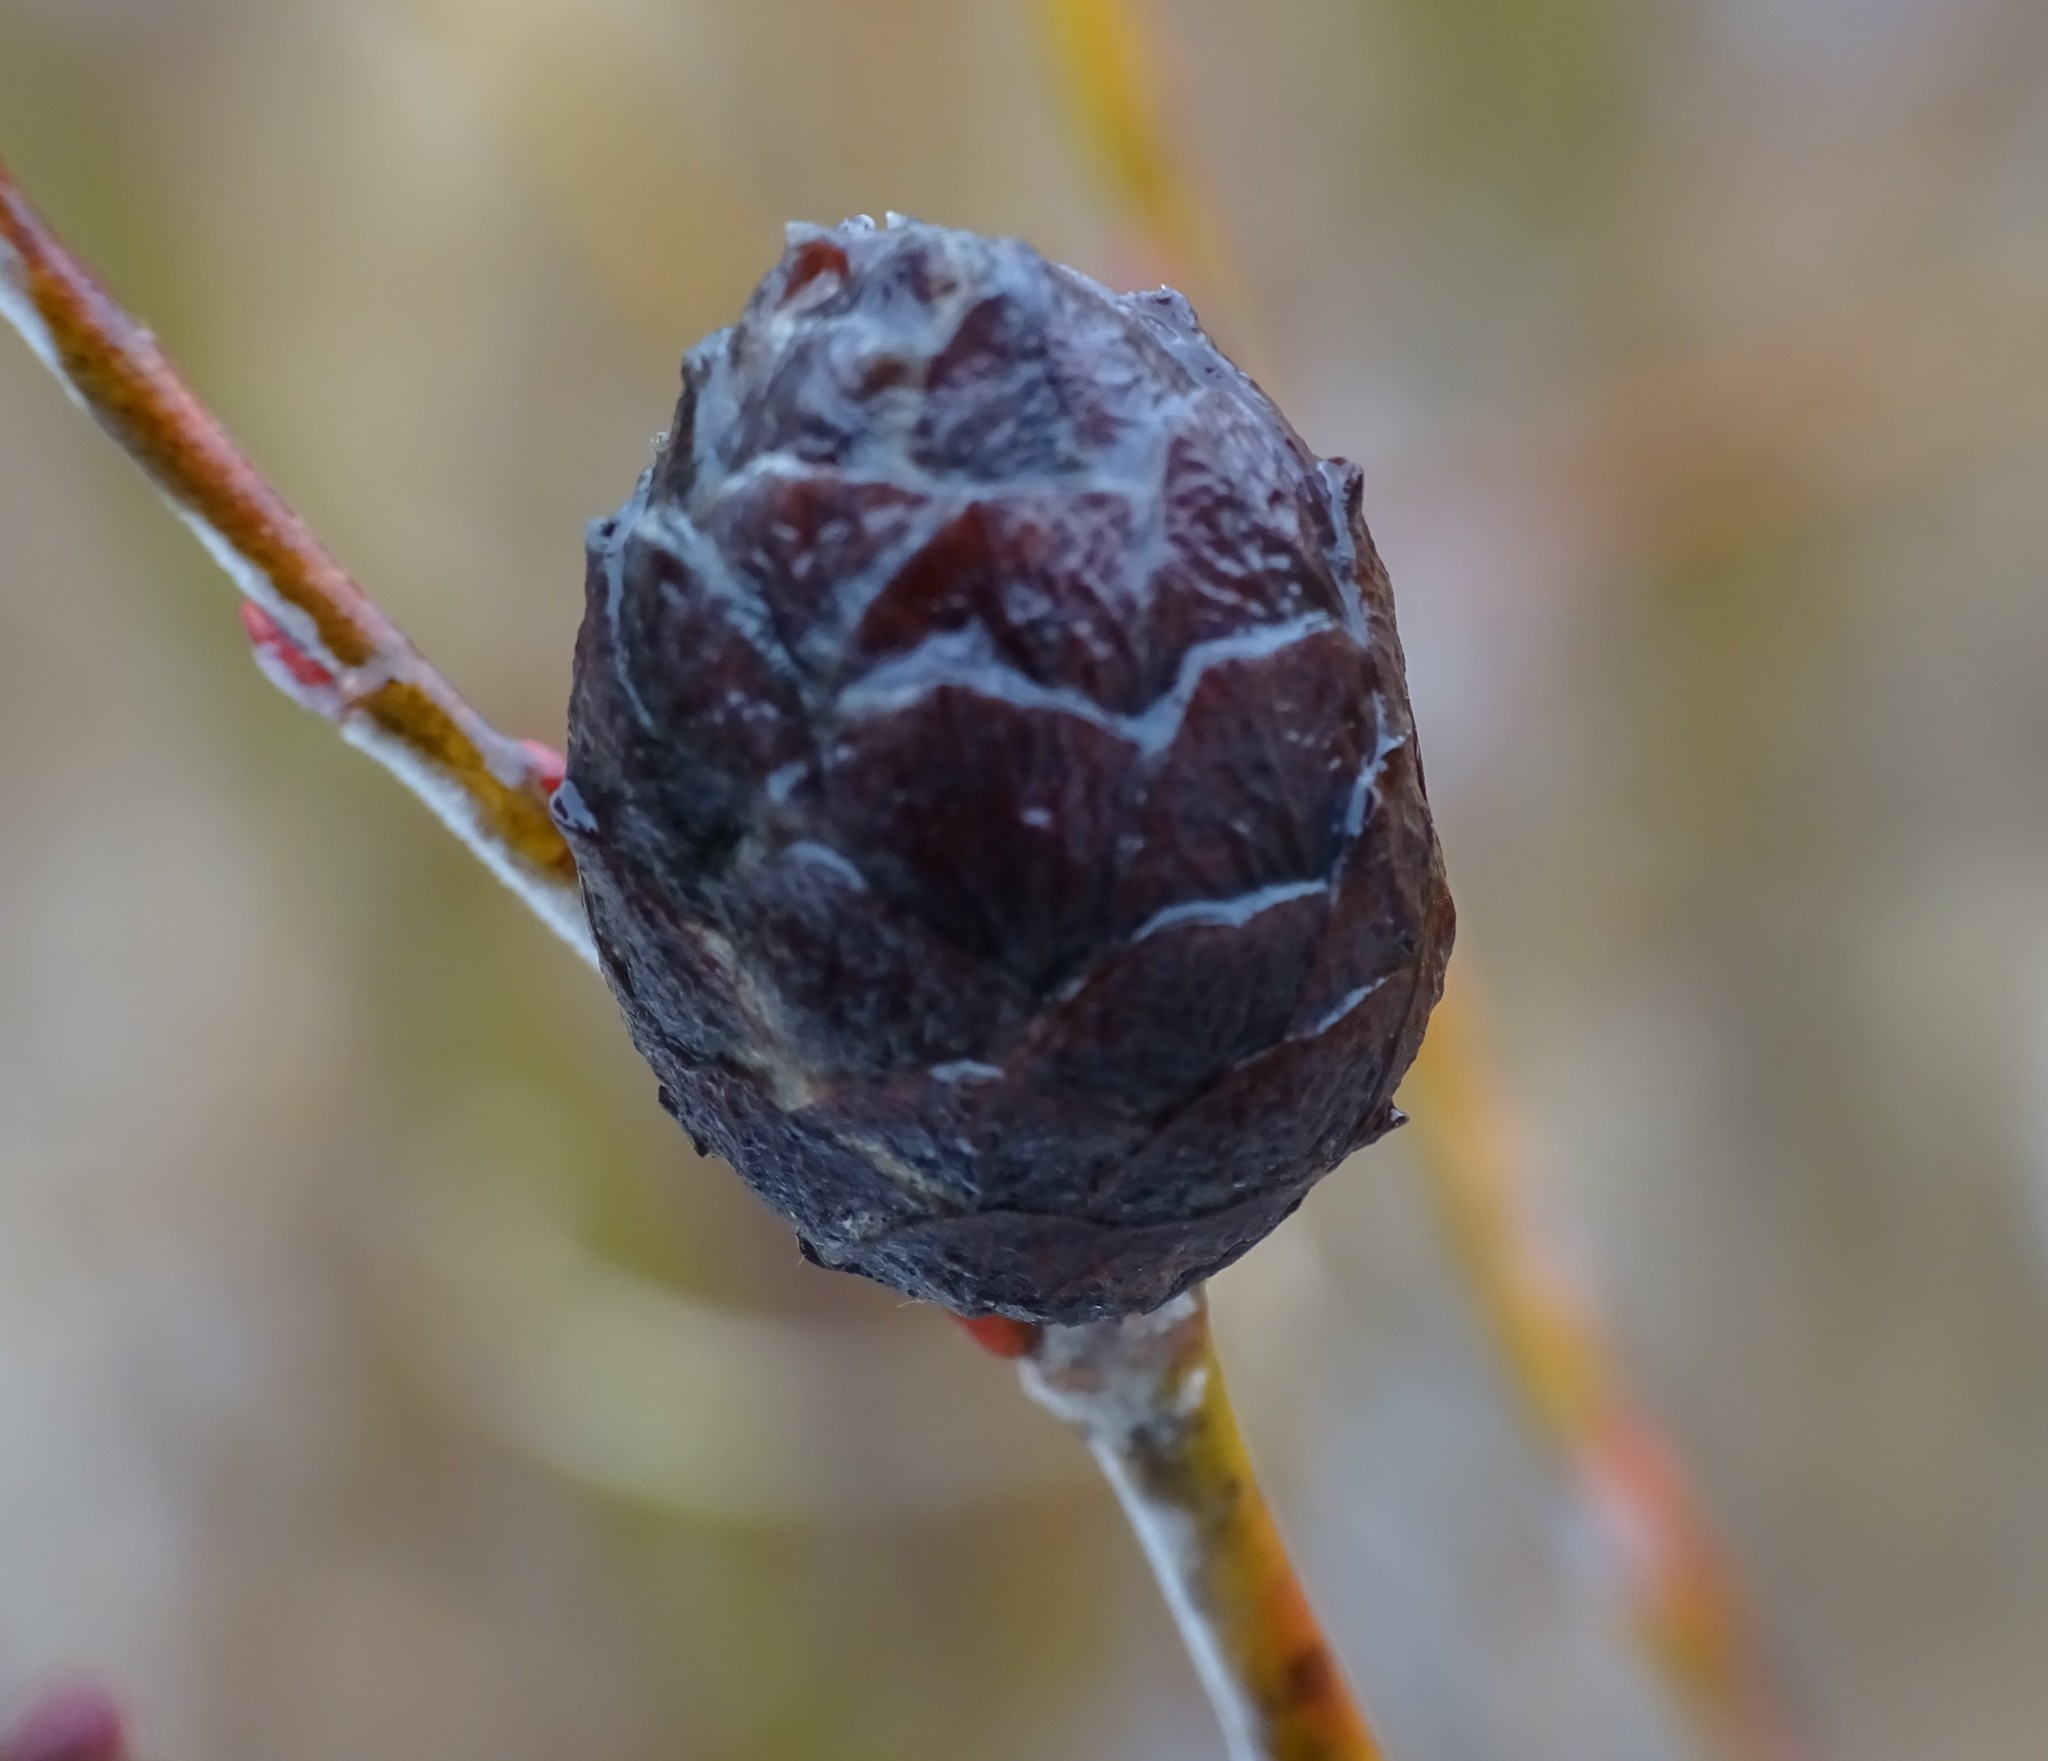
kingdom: Animalia
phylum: Arthropoda
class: Insecta
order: Diptera
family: Cecidomyiidae
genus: Rabdophaga
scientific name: Rabdophaga strobiloides
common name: Willow pinecone gall midge
